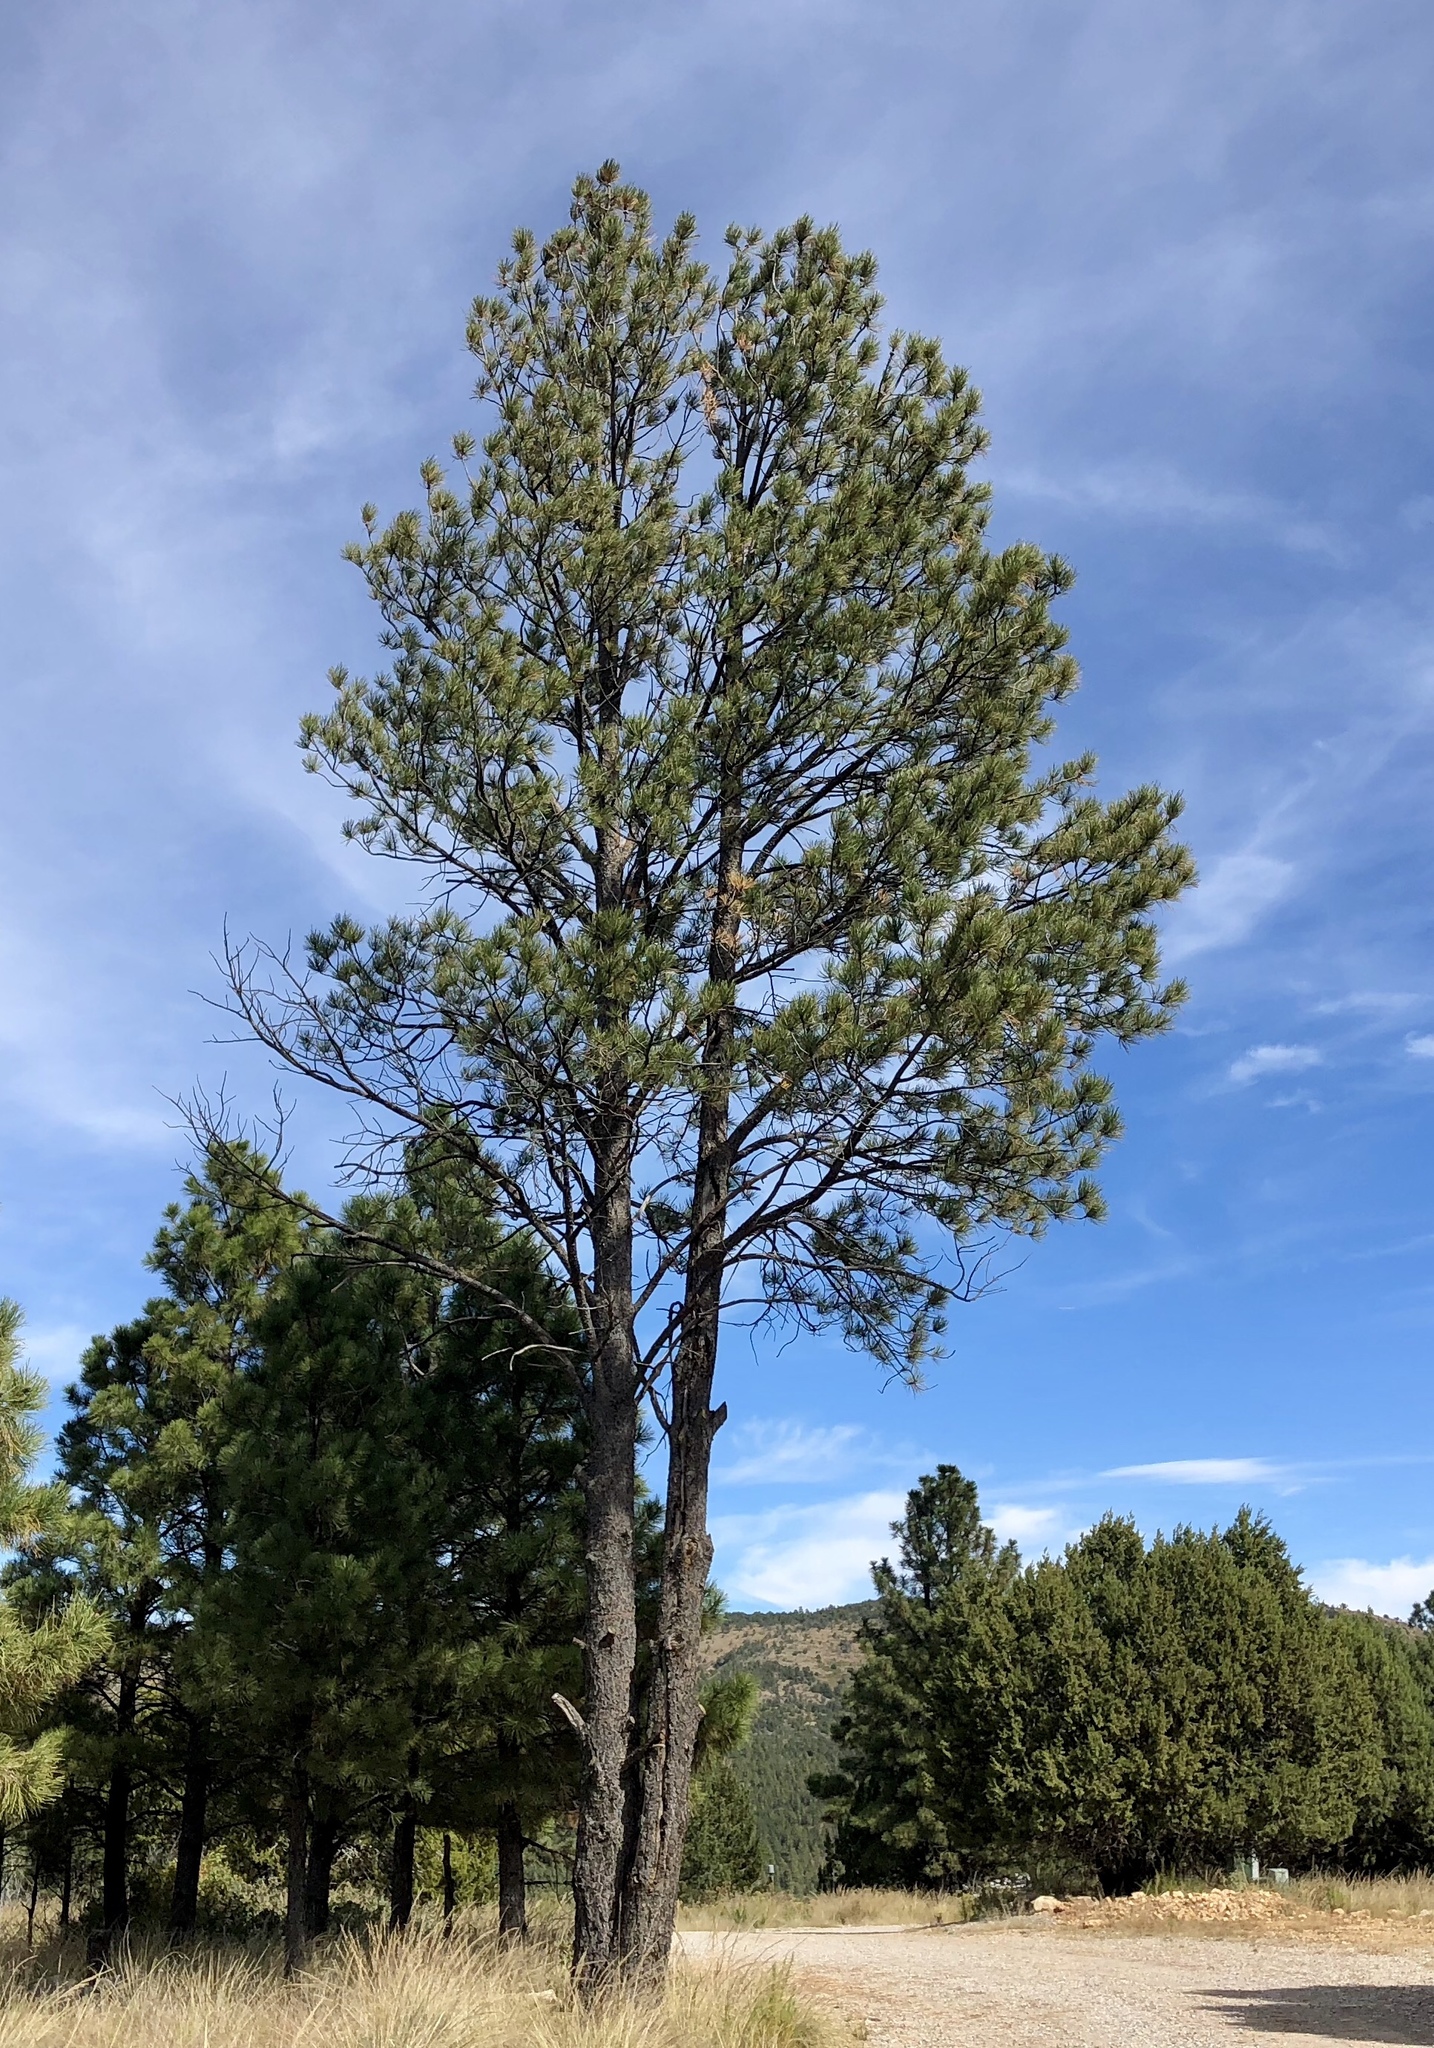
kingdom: Plantae
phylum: Tracheophyta
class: Pinopsida
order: Pinales
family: Pinaceae
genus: Pinus
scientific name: Pinus ponderosa
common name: Western yellow-pine
